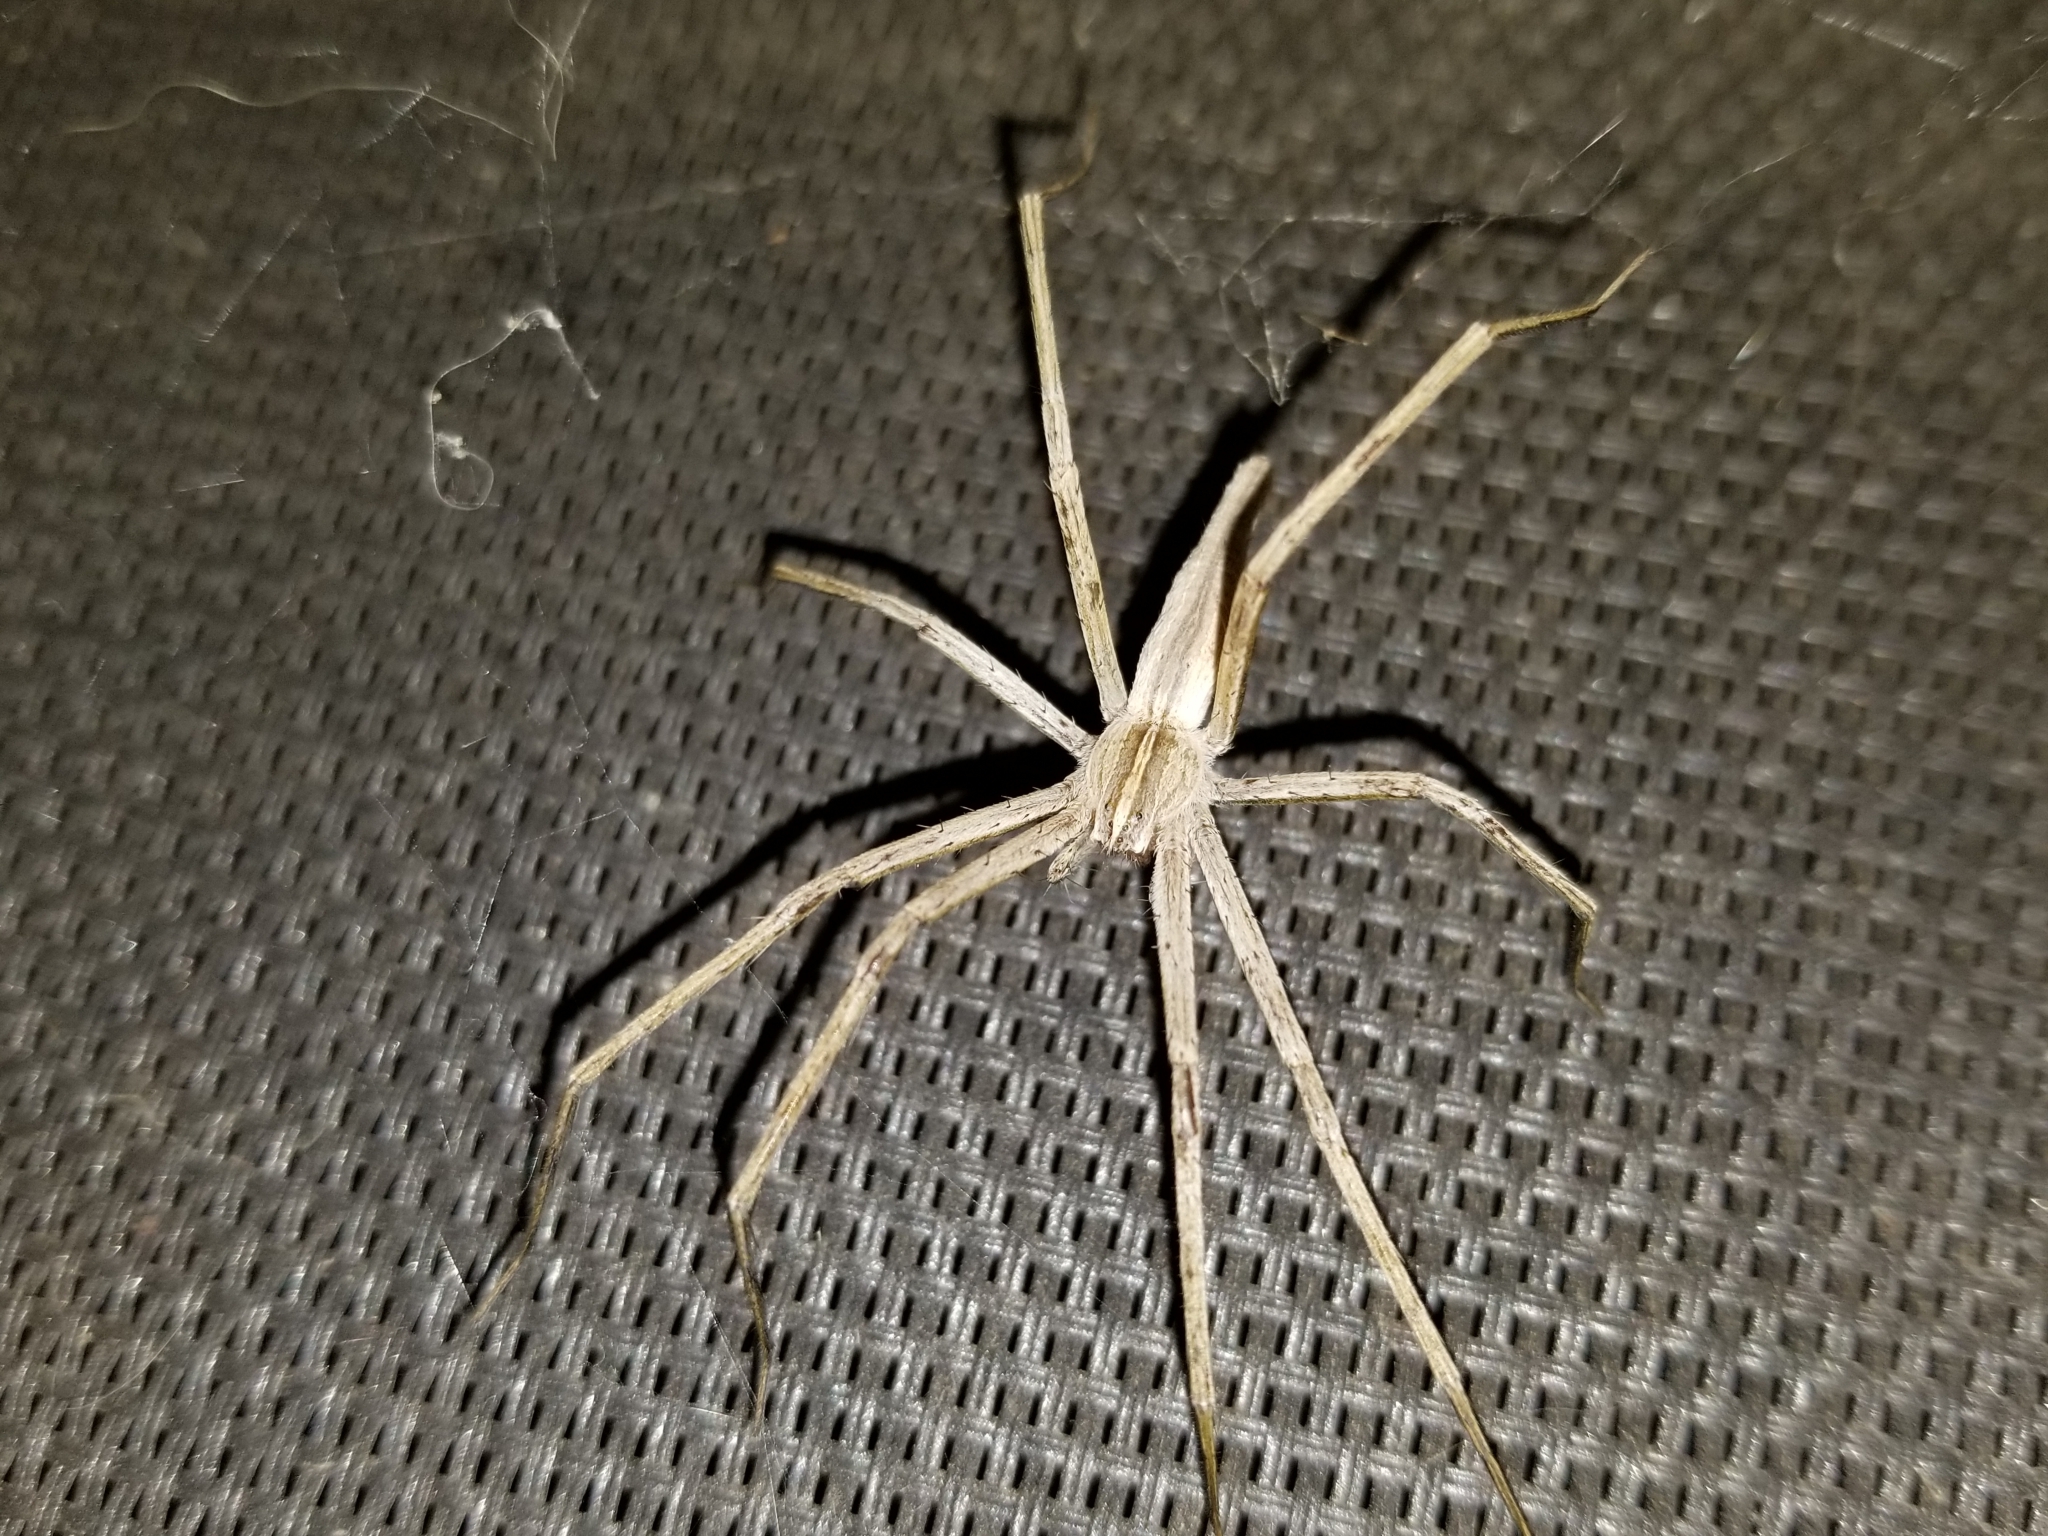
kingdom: Animalia
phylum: Arthropoda
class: Arachnida
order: Araneae
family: Pisauridae
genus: Pisaurina
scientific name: Pisaurina dubia
